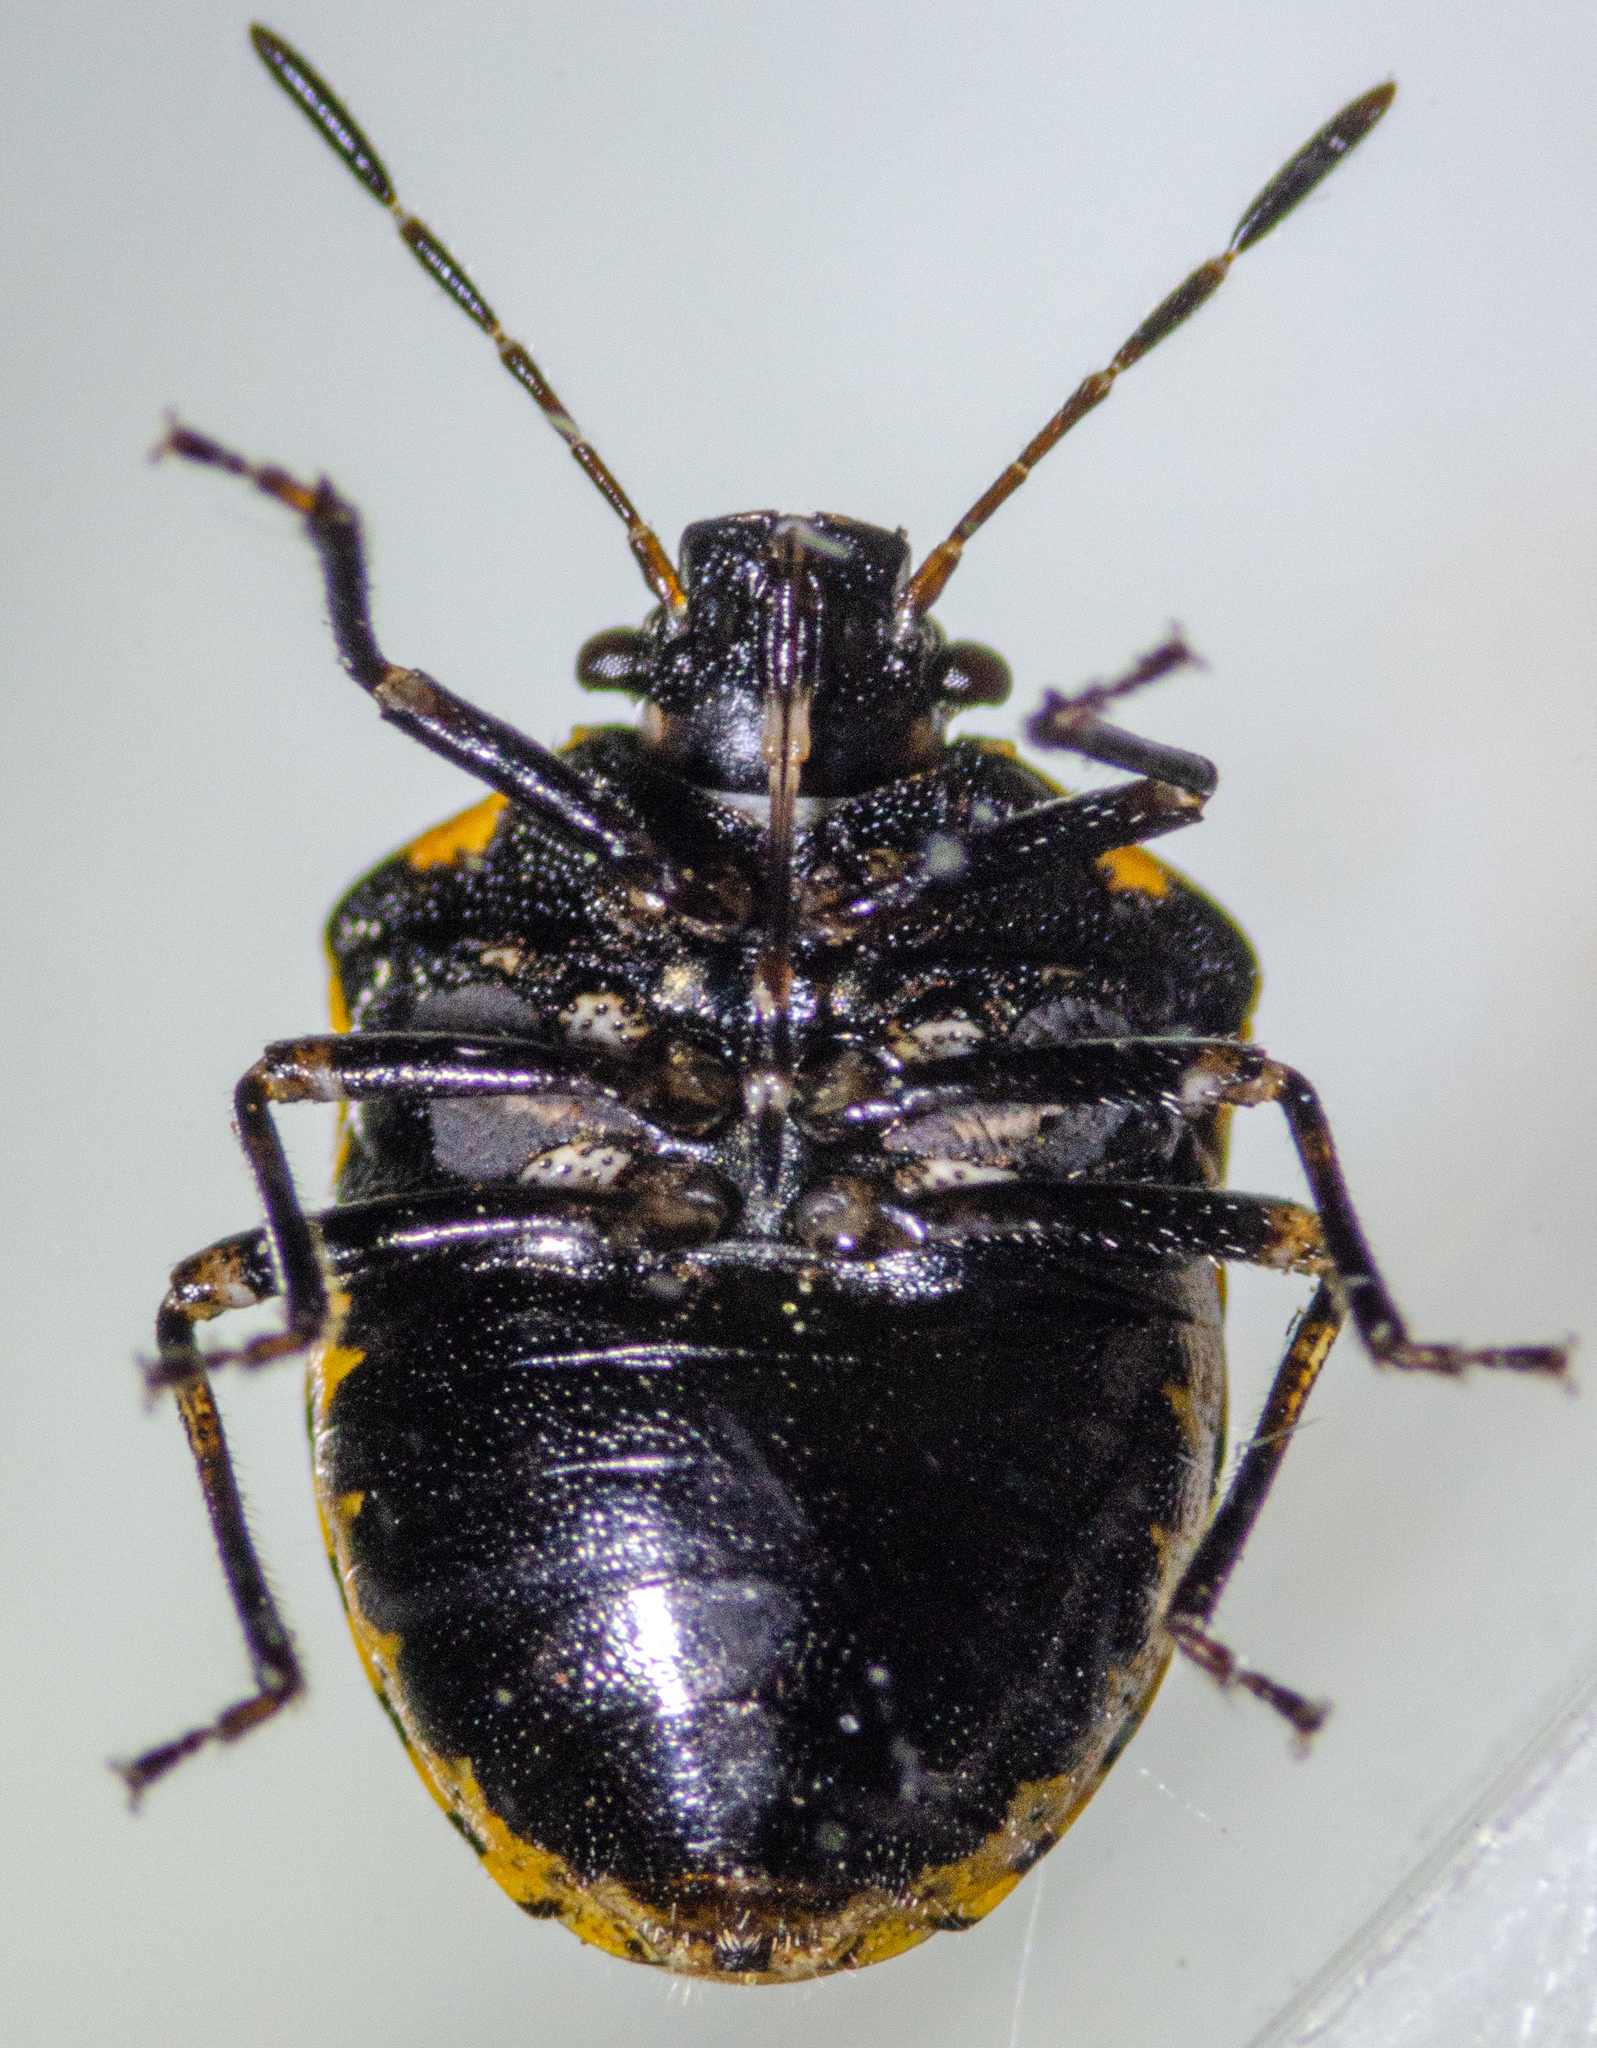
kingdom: Animalia
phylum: Arthropoda
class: Insecta
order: Hemiptera
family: Pentatomidae
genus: Cosmopepla
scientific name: Cosmopepla uhleri
